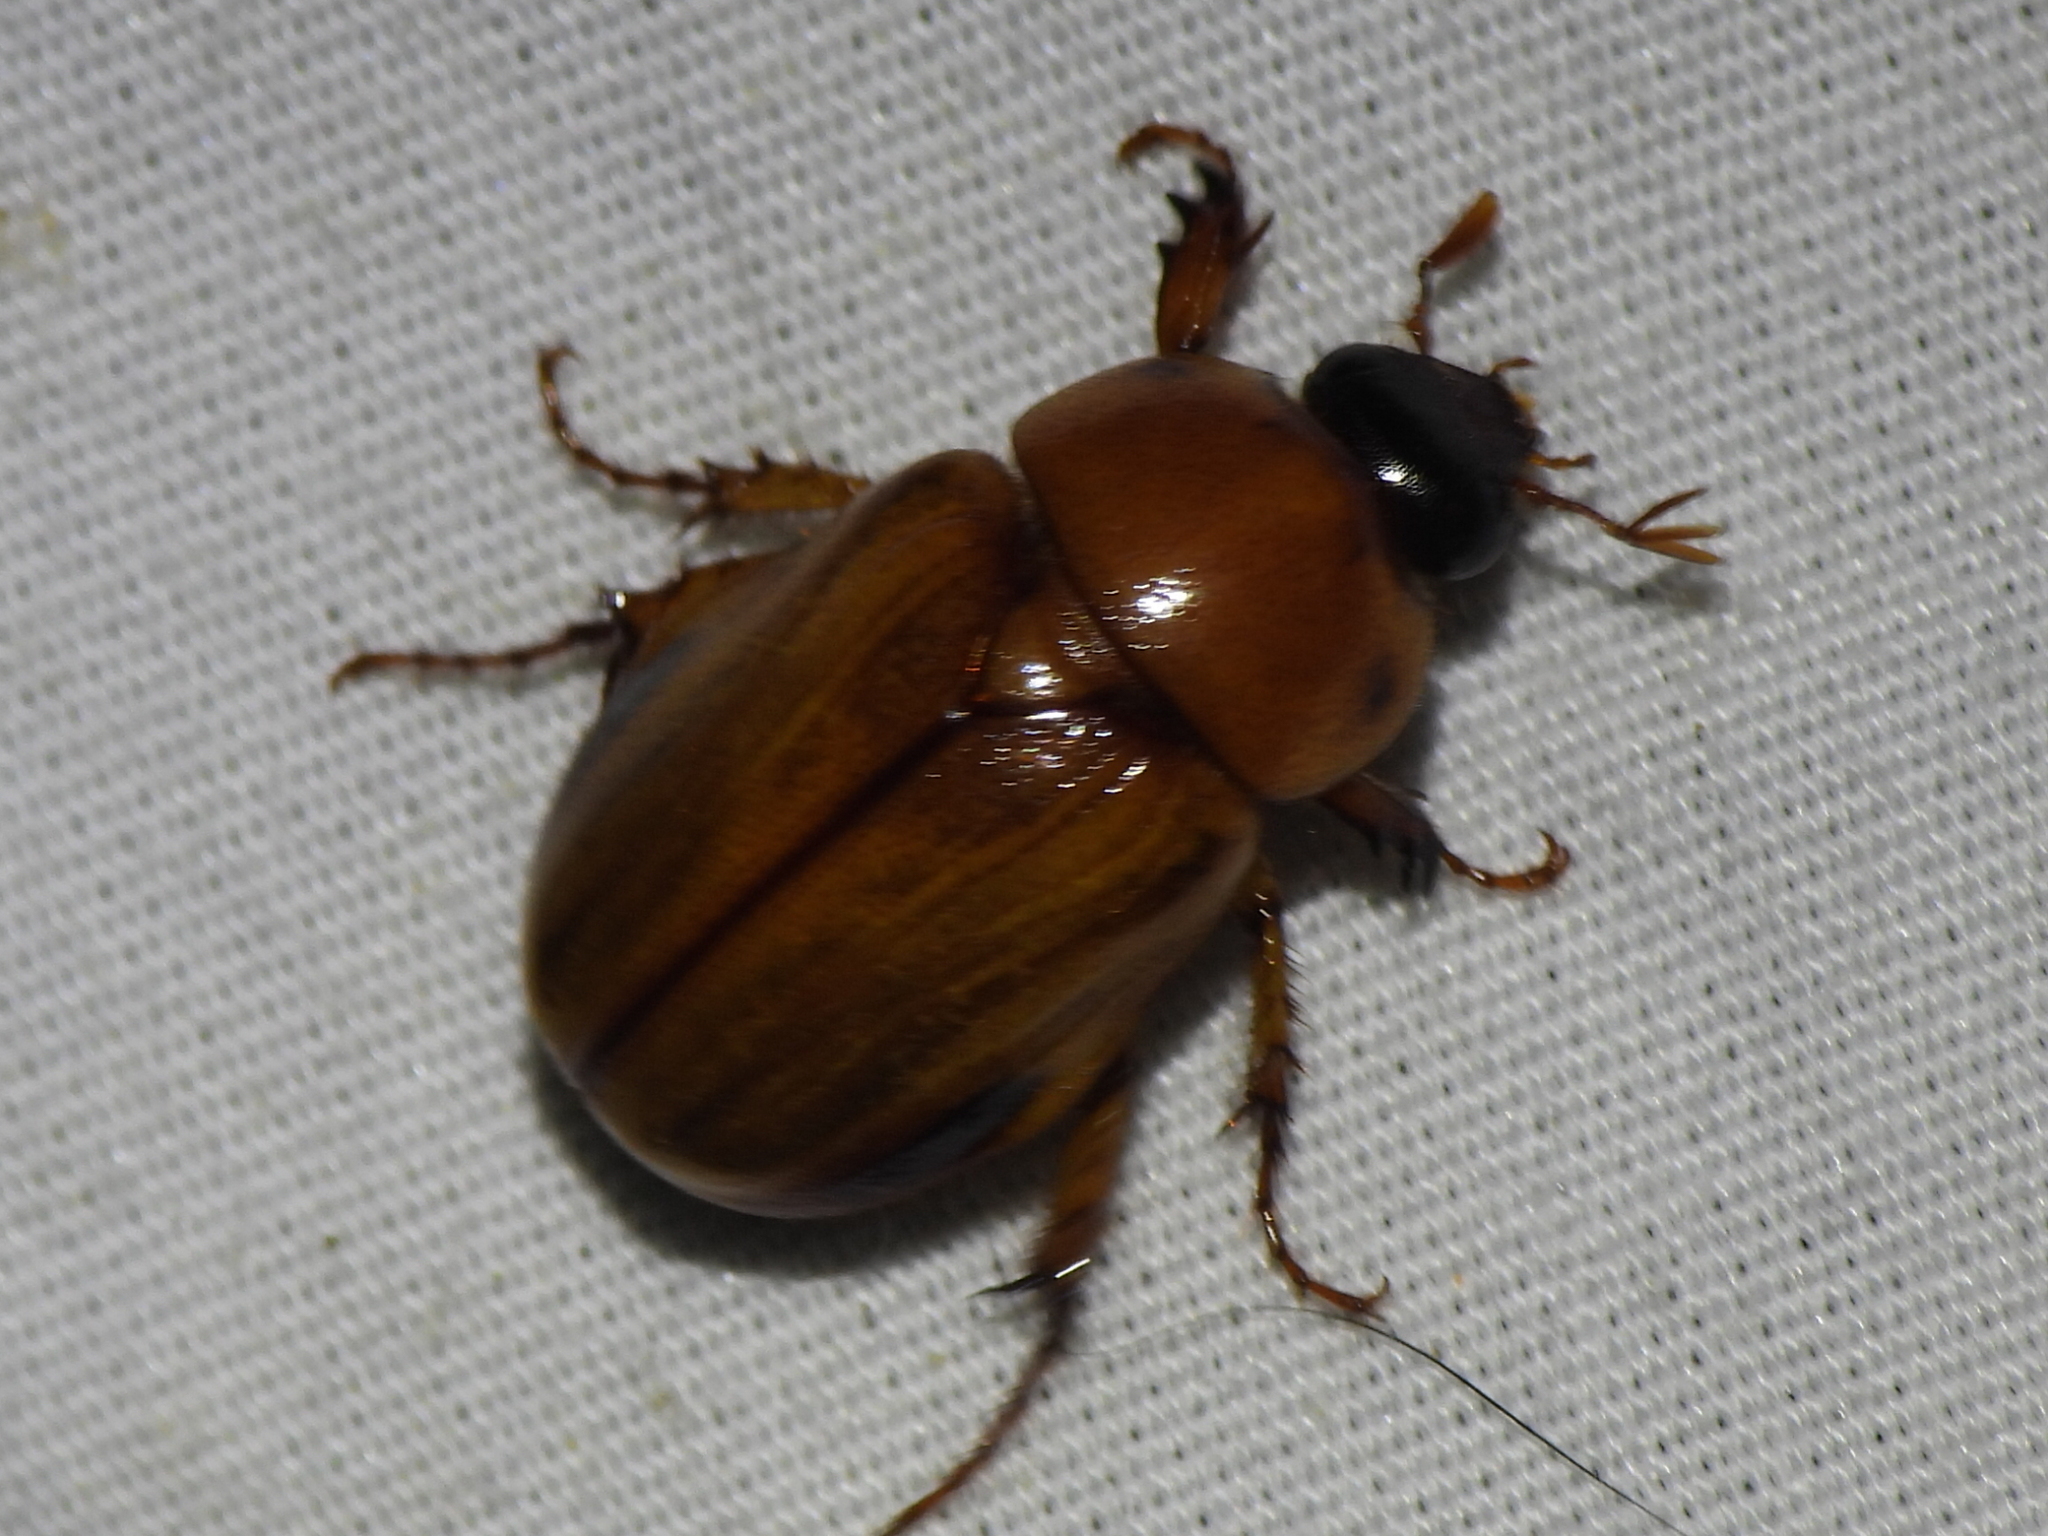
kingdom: Animalia
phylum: Arthropoda
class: Insecta
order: Coleoptera
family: Scarabaeidae
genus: Cyclocephala
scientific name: Cyclocephala lurida
